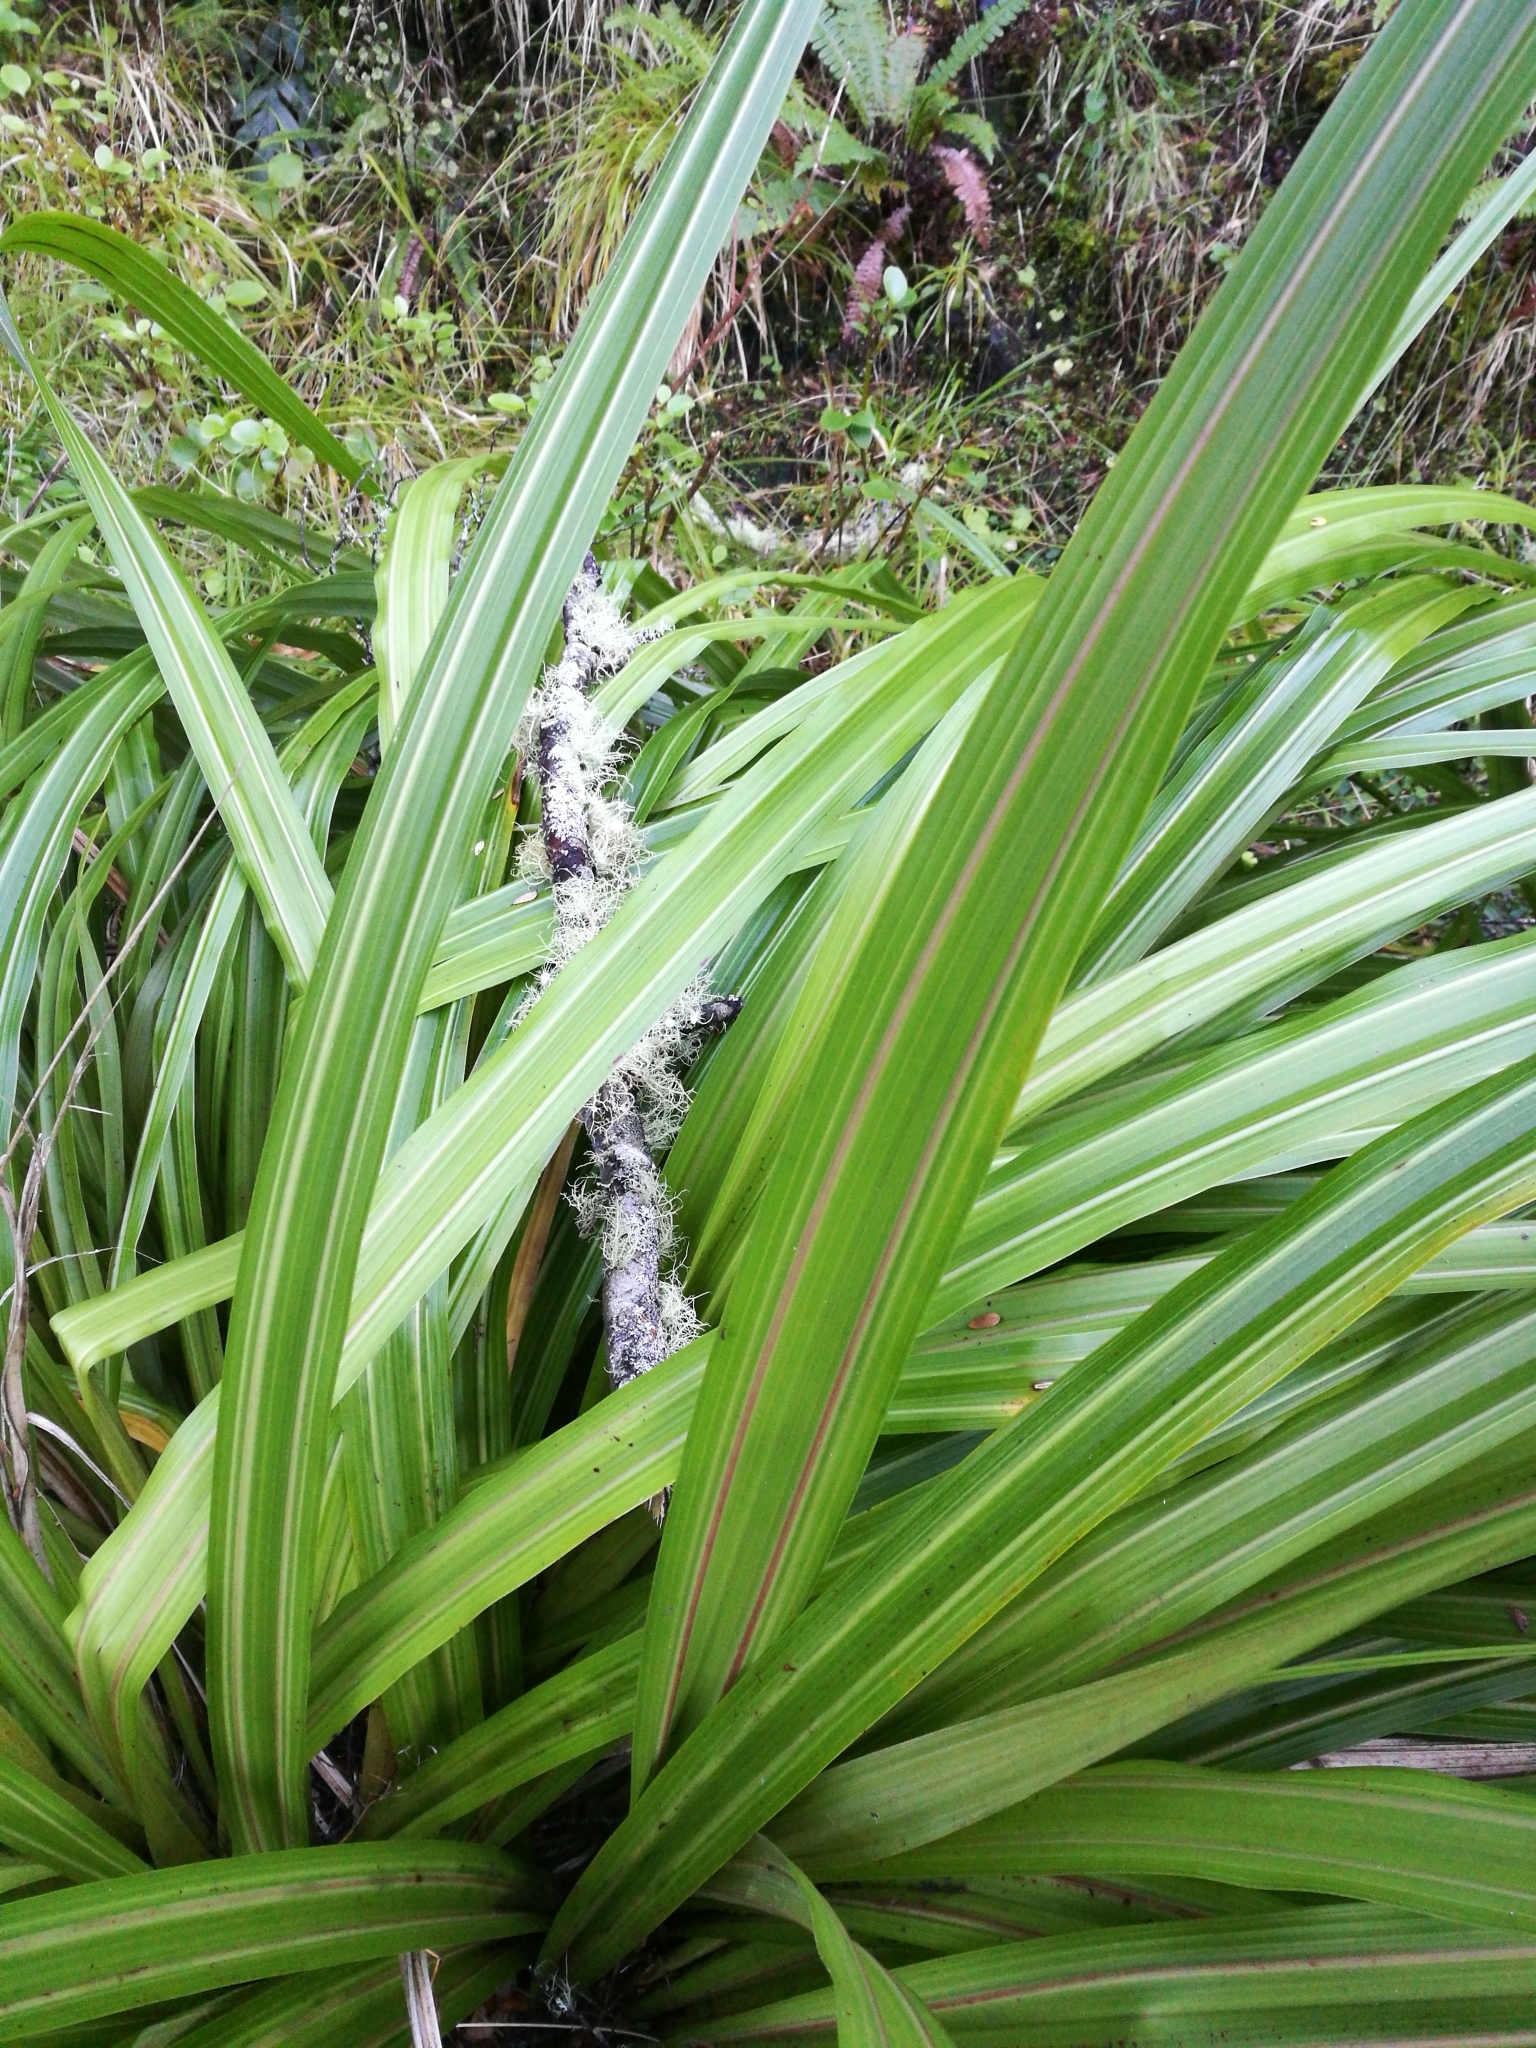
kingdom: Plantae
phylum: Tracheophyta
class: Liliopsida
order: Asparagales
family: Asteliaceae
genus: Astelia
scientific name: Astelia fragrans
